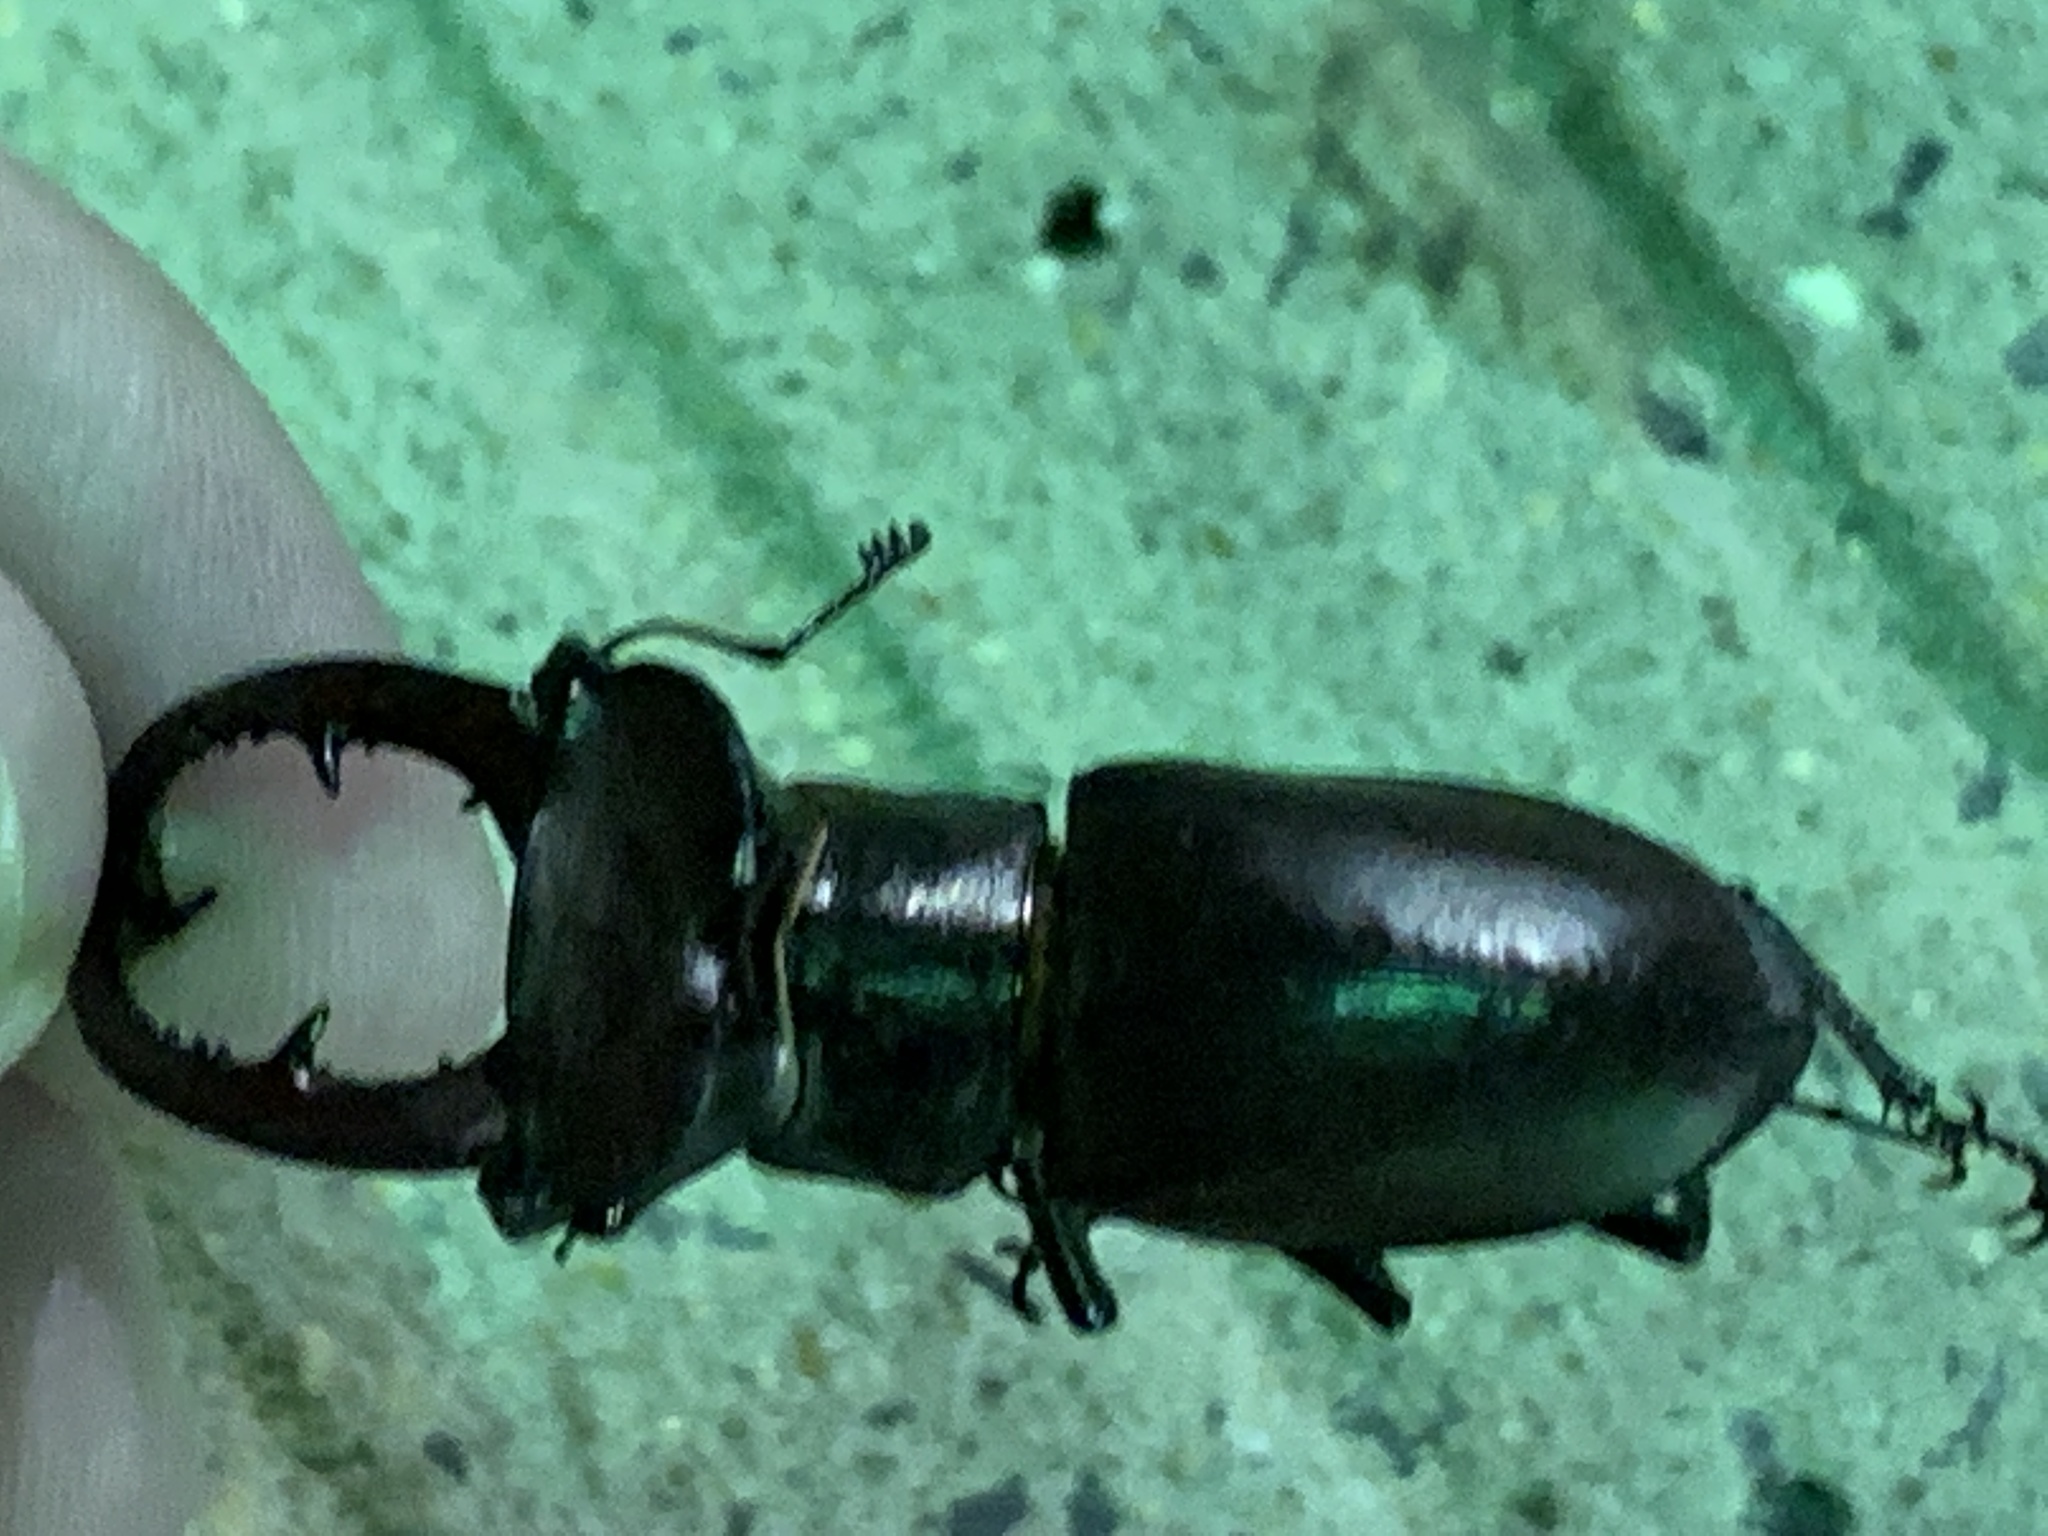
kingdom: Animalia
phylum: Arthropoda
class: Insecta
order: Coleoptera
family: Lucanidae
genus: Lucanus
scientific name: Lucanus elaphus
